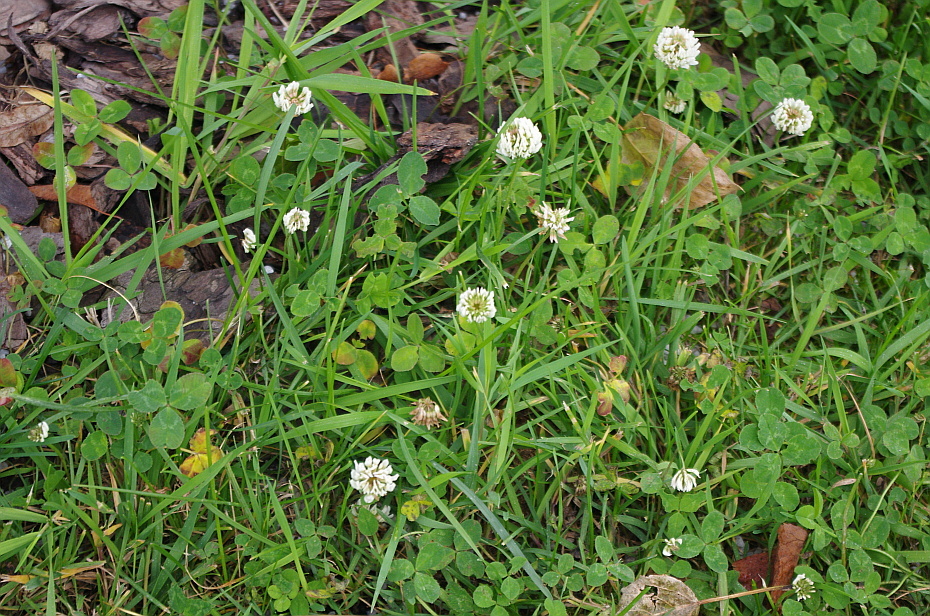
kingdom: Plantae
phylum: Tracheophyta
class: Magnoliopsida
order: Fabales
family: Fabaceae
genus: Trifolium
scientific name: Trifolium repens
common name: White clover
